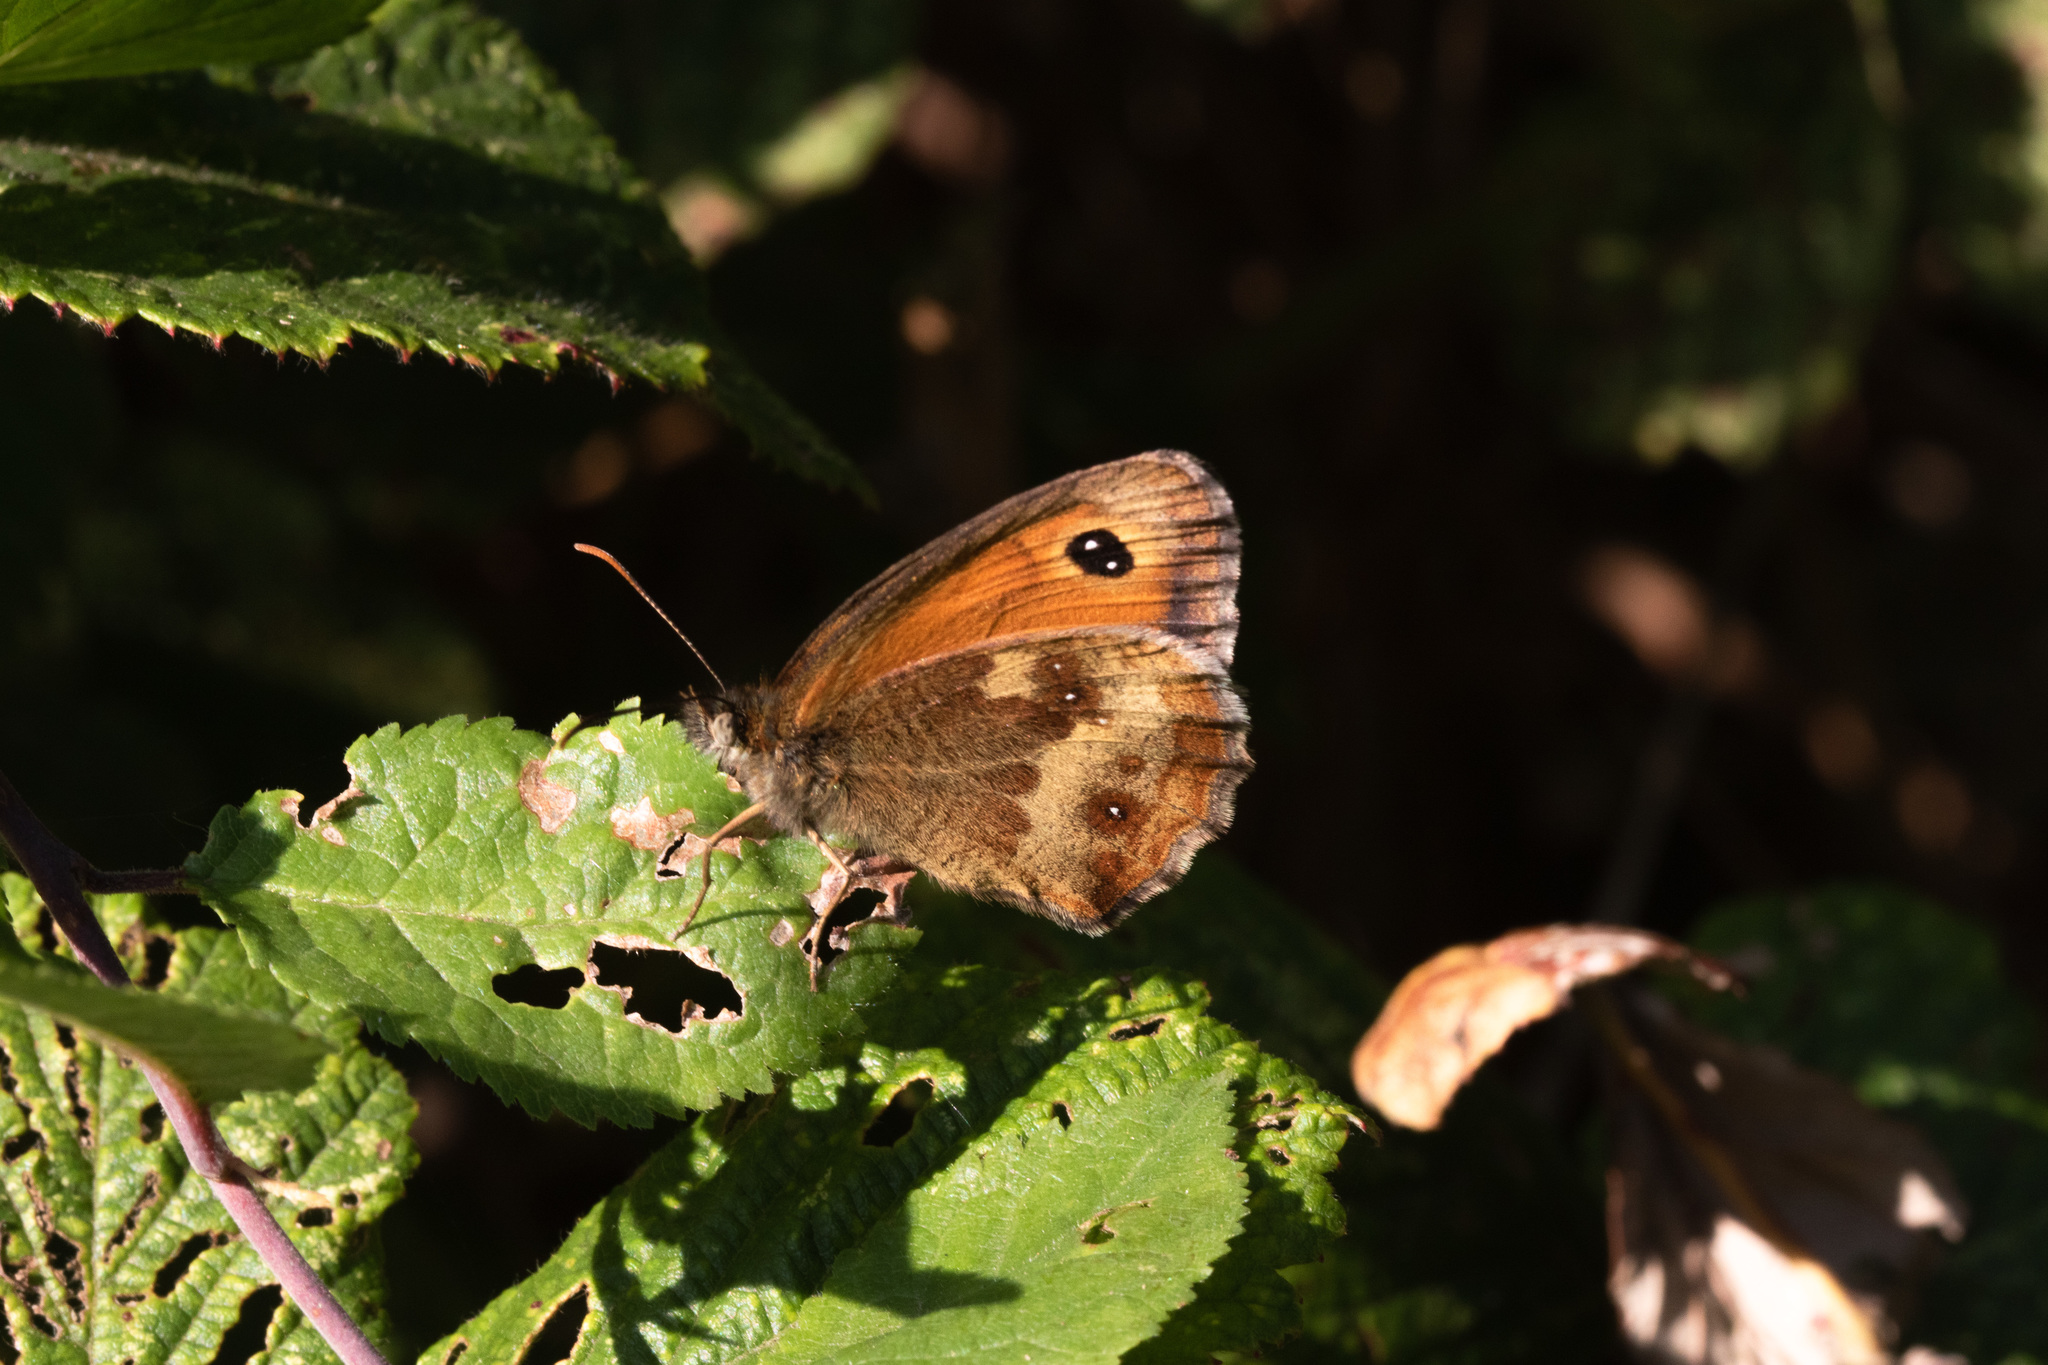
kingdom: Animalia
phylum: Arthropoda
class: Insecta
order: Lepidoptera
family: Nymphalidae
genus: Pyronia
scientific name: Pyronia tithonus
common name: Gatekeeper
